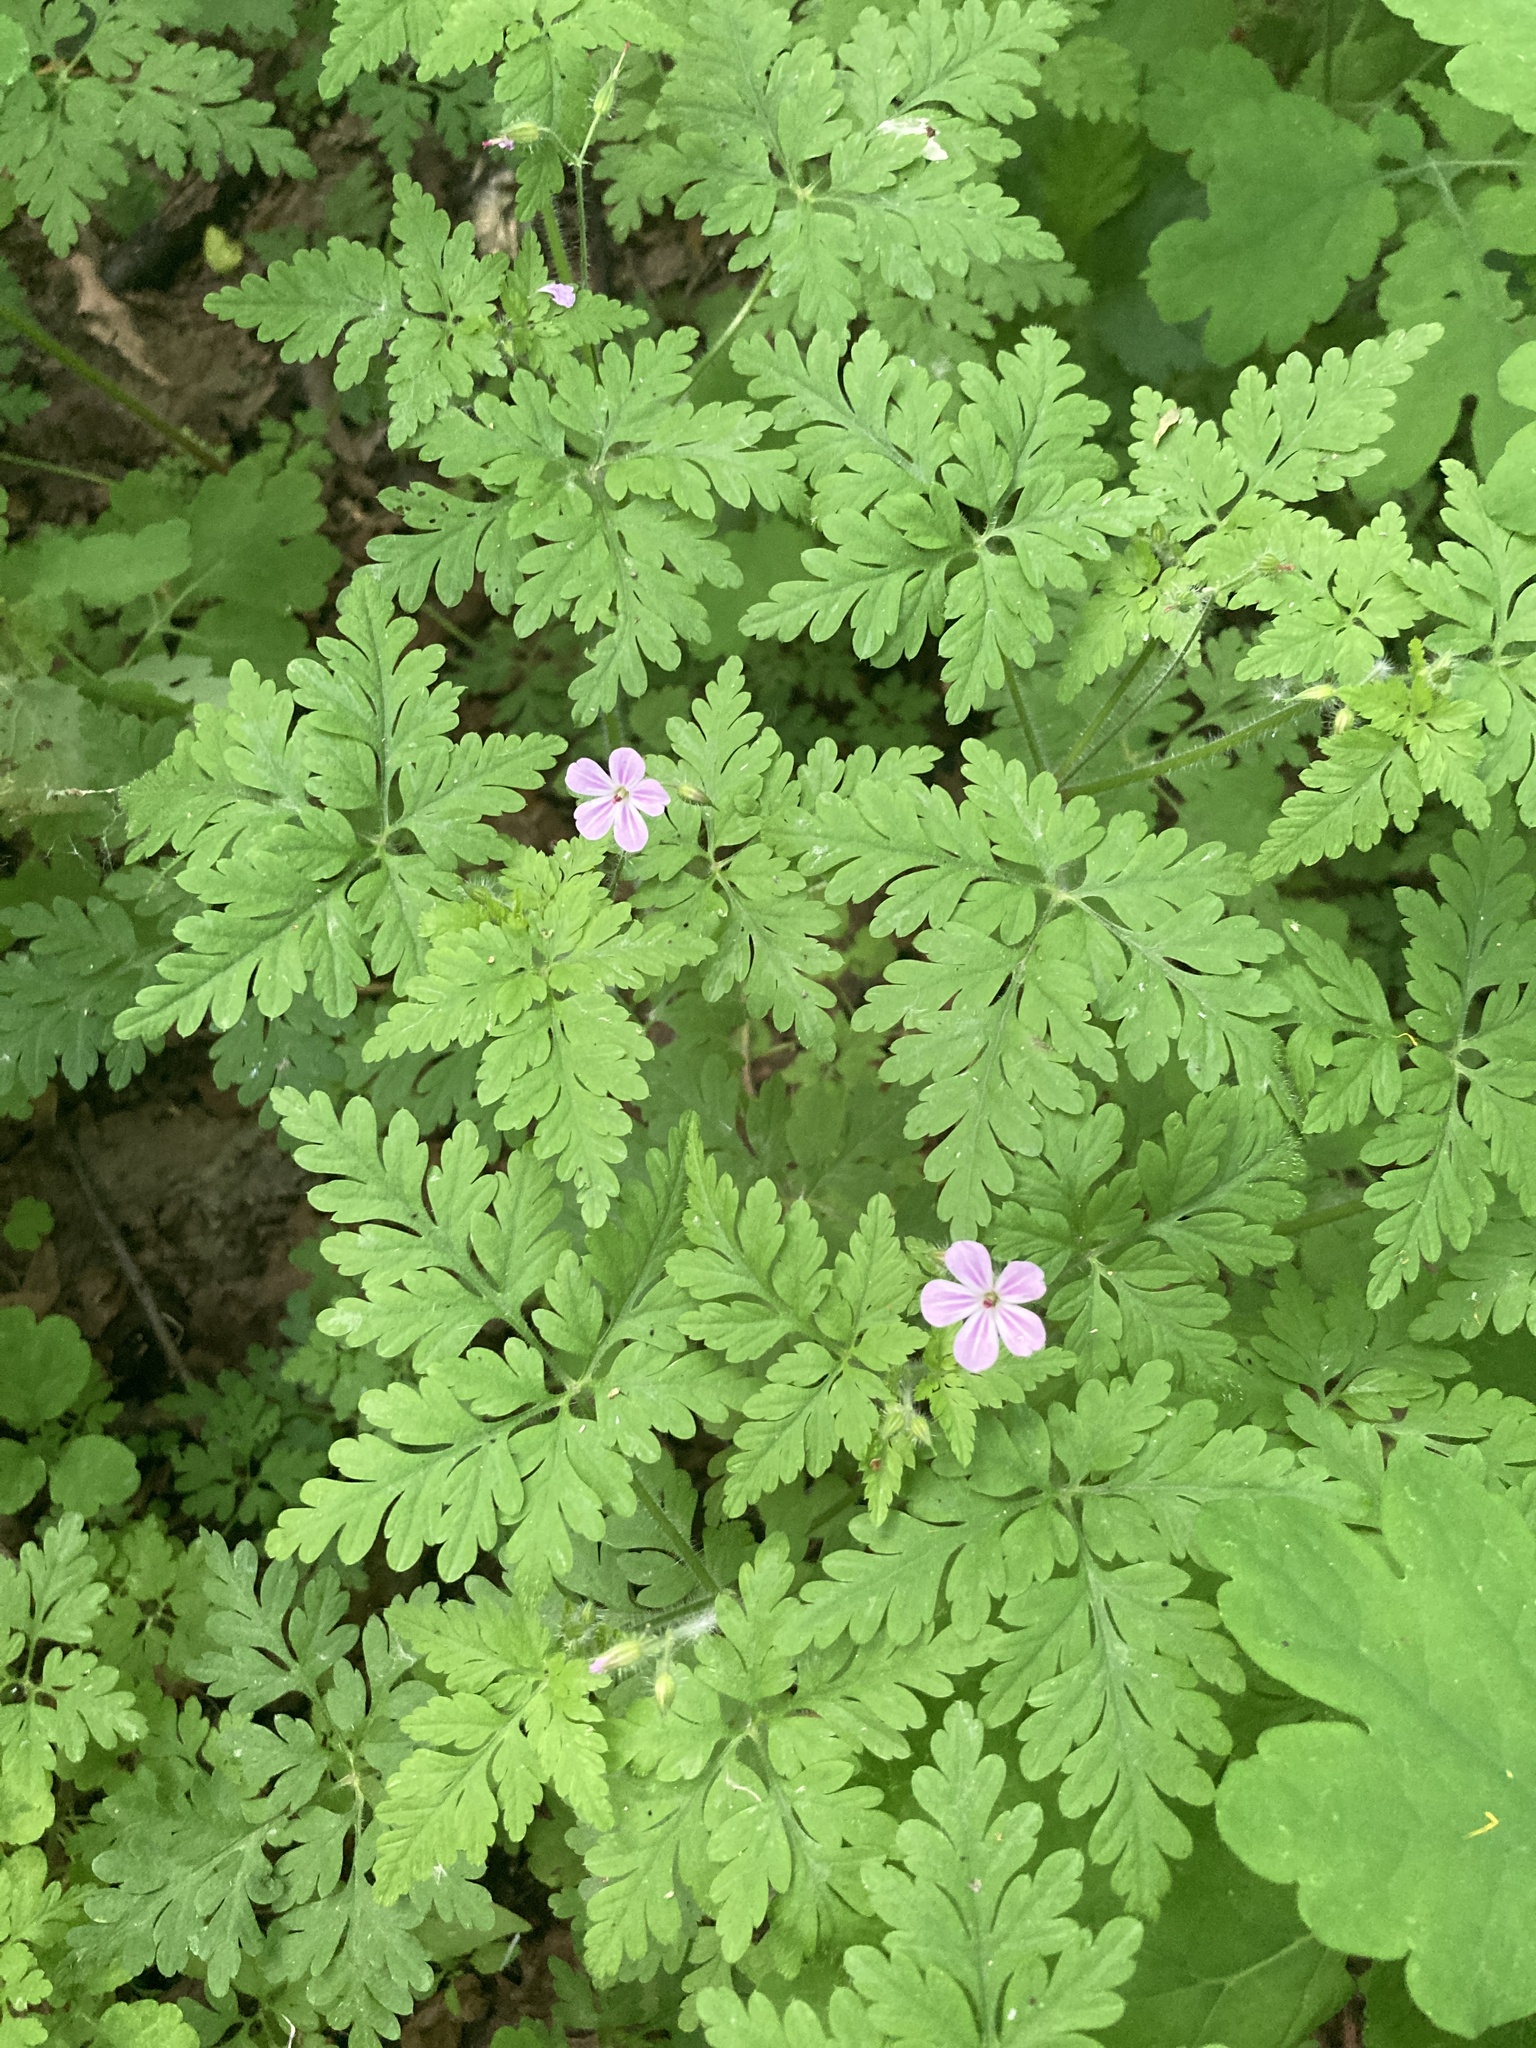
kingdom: Plantae
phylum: Tracheophyta
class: Magnoliopsida
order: Geraniales
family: Geraniaceae
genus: Geranium
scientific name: Geranium robertianum
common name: Herb-robert
